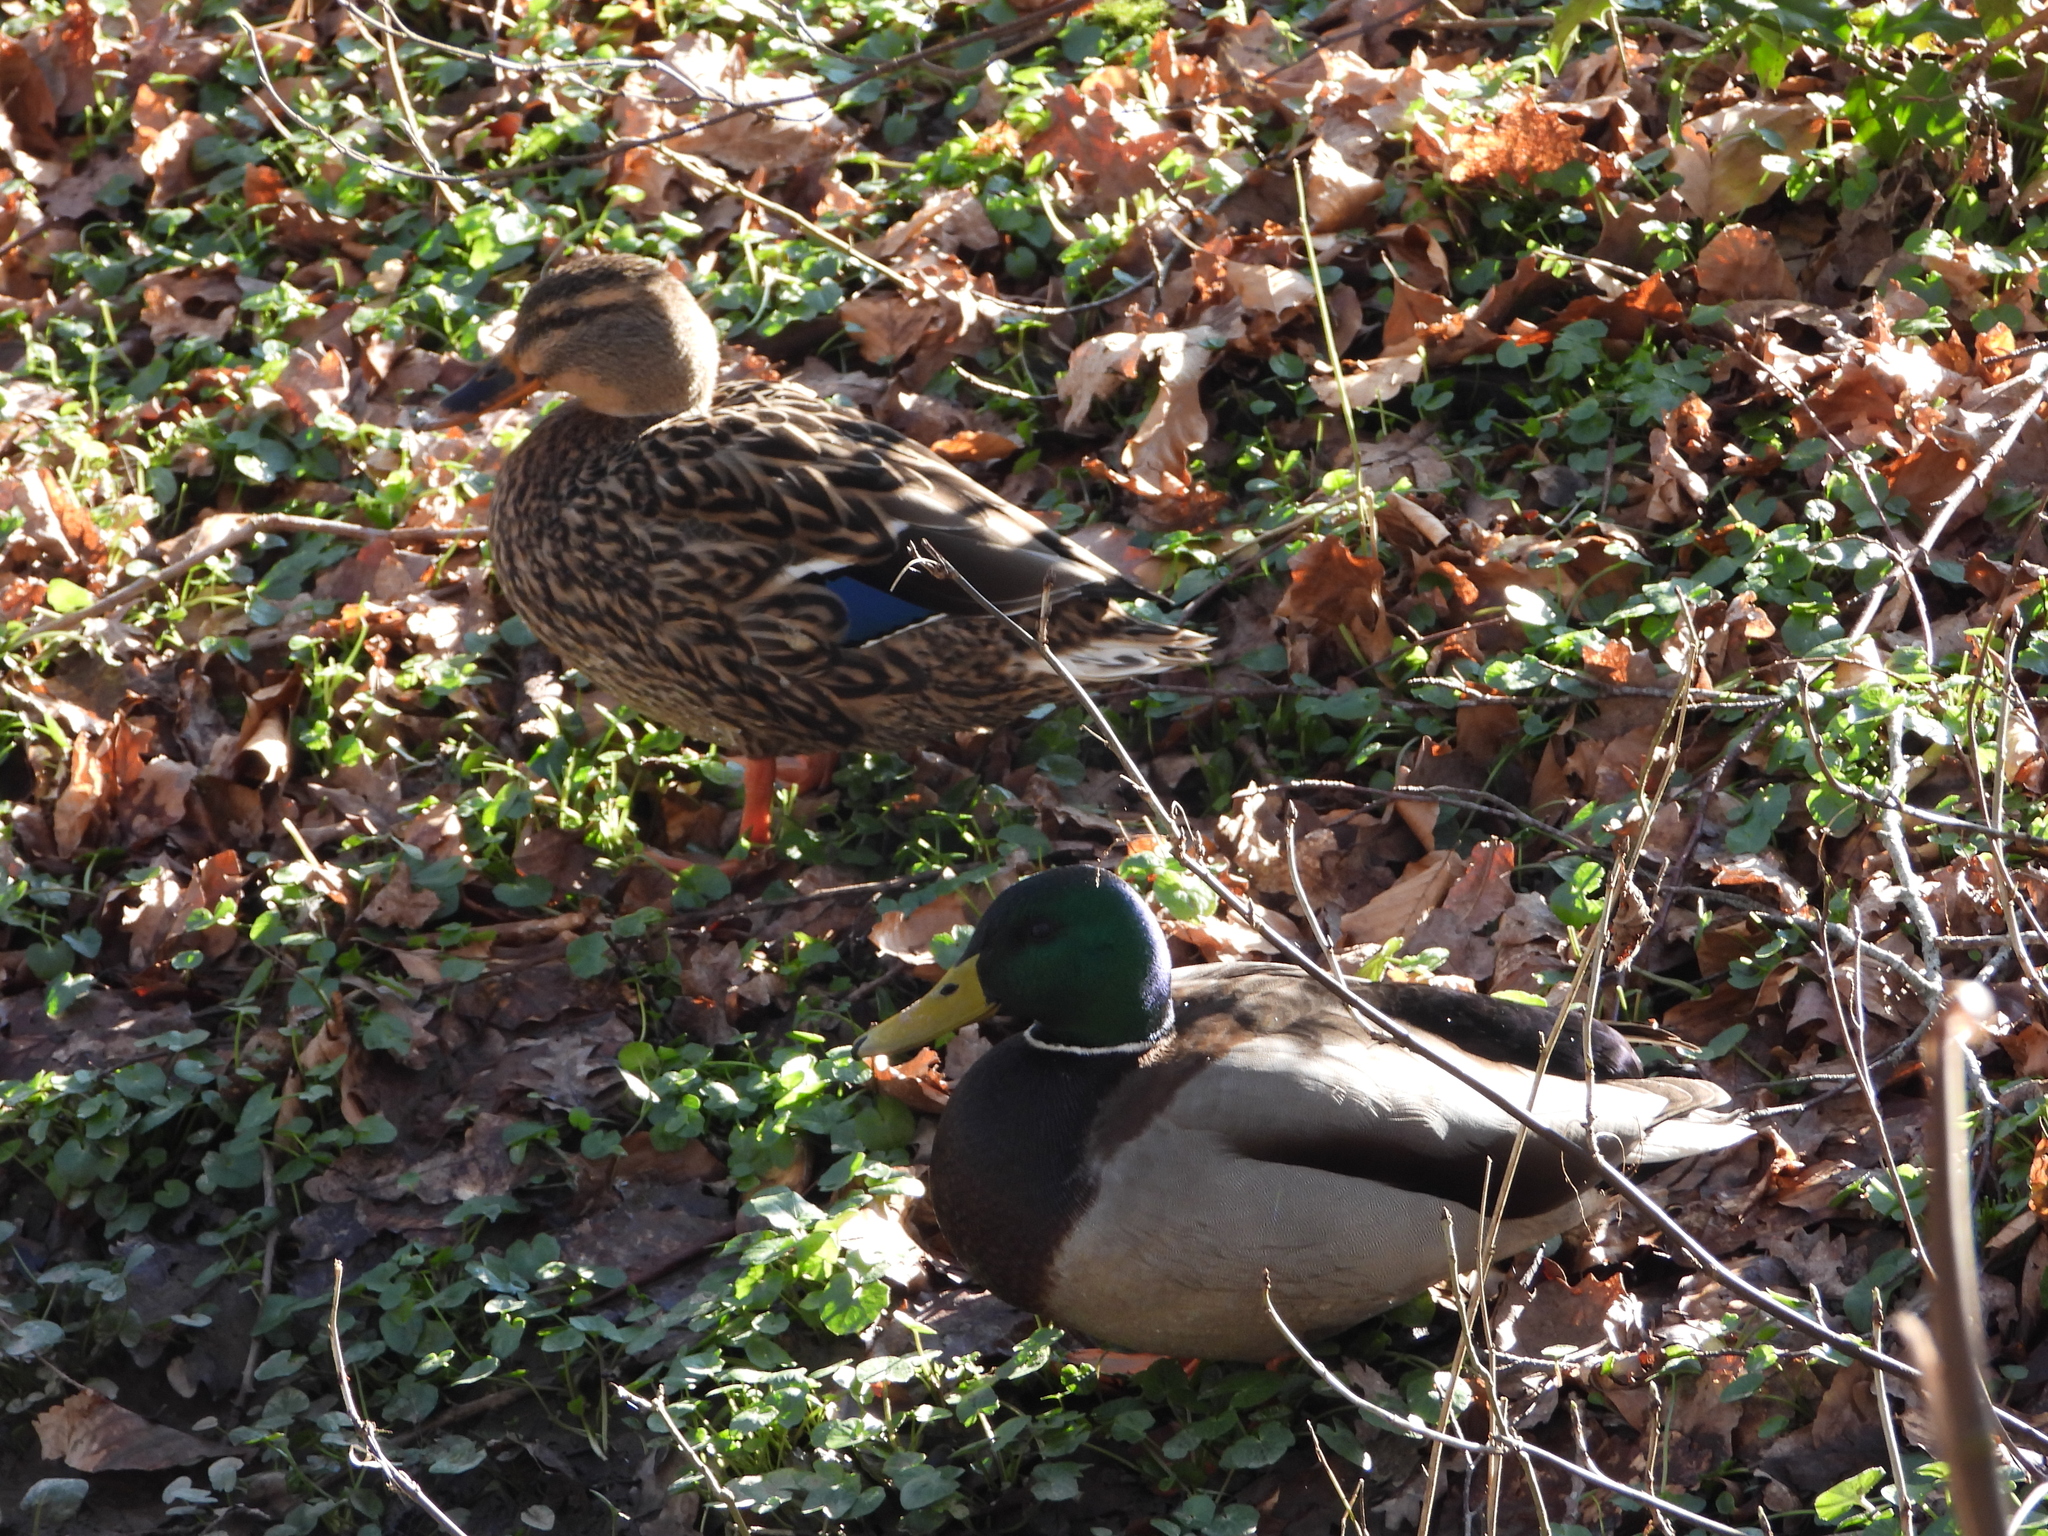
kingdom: Animalia
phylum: Chordata
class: Aves
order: Anseriformes
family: Anatidae
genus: Anas
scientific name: Anas platyrhynchos
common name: Mallard
